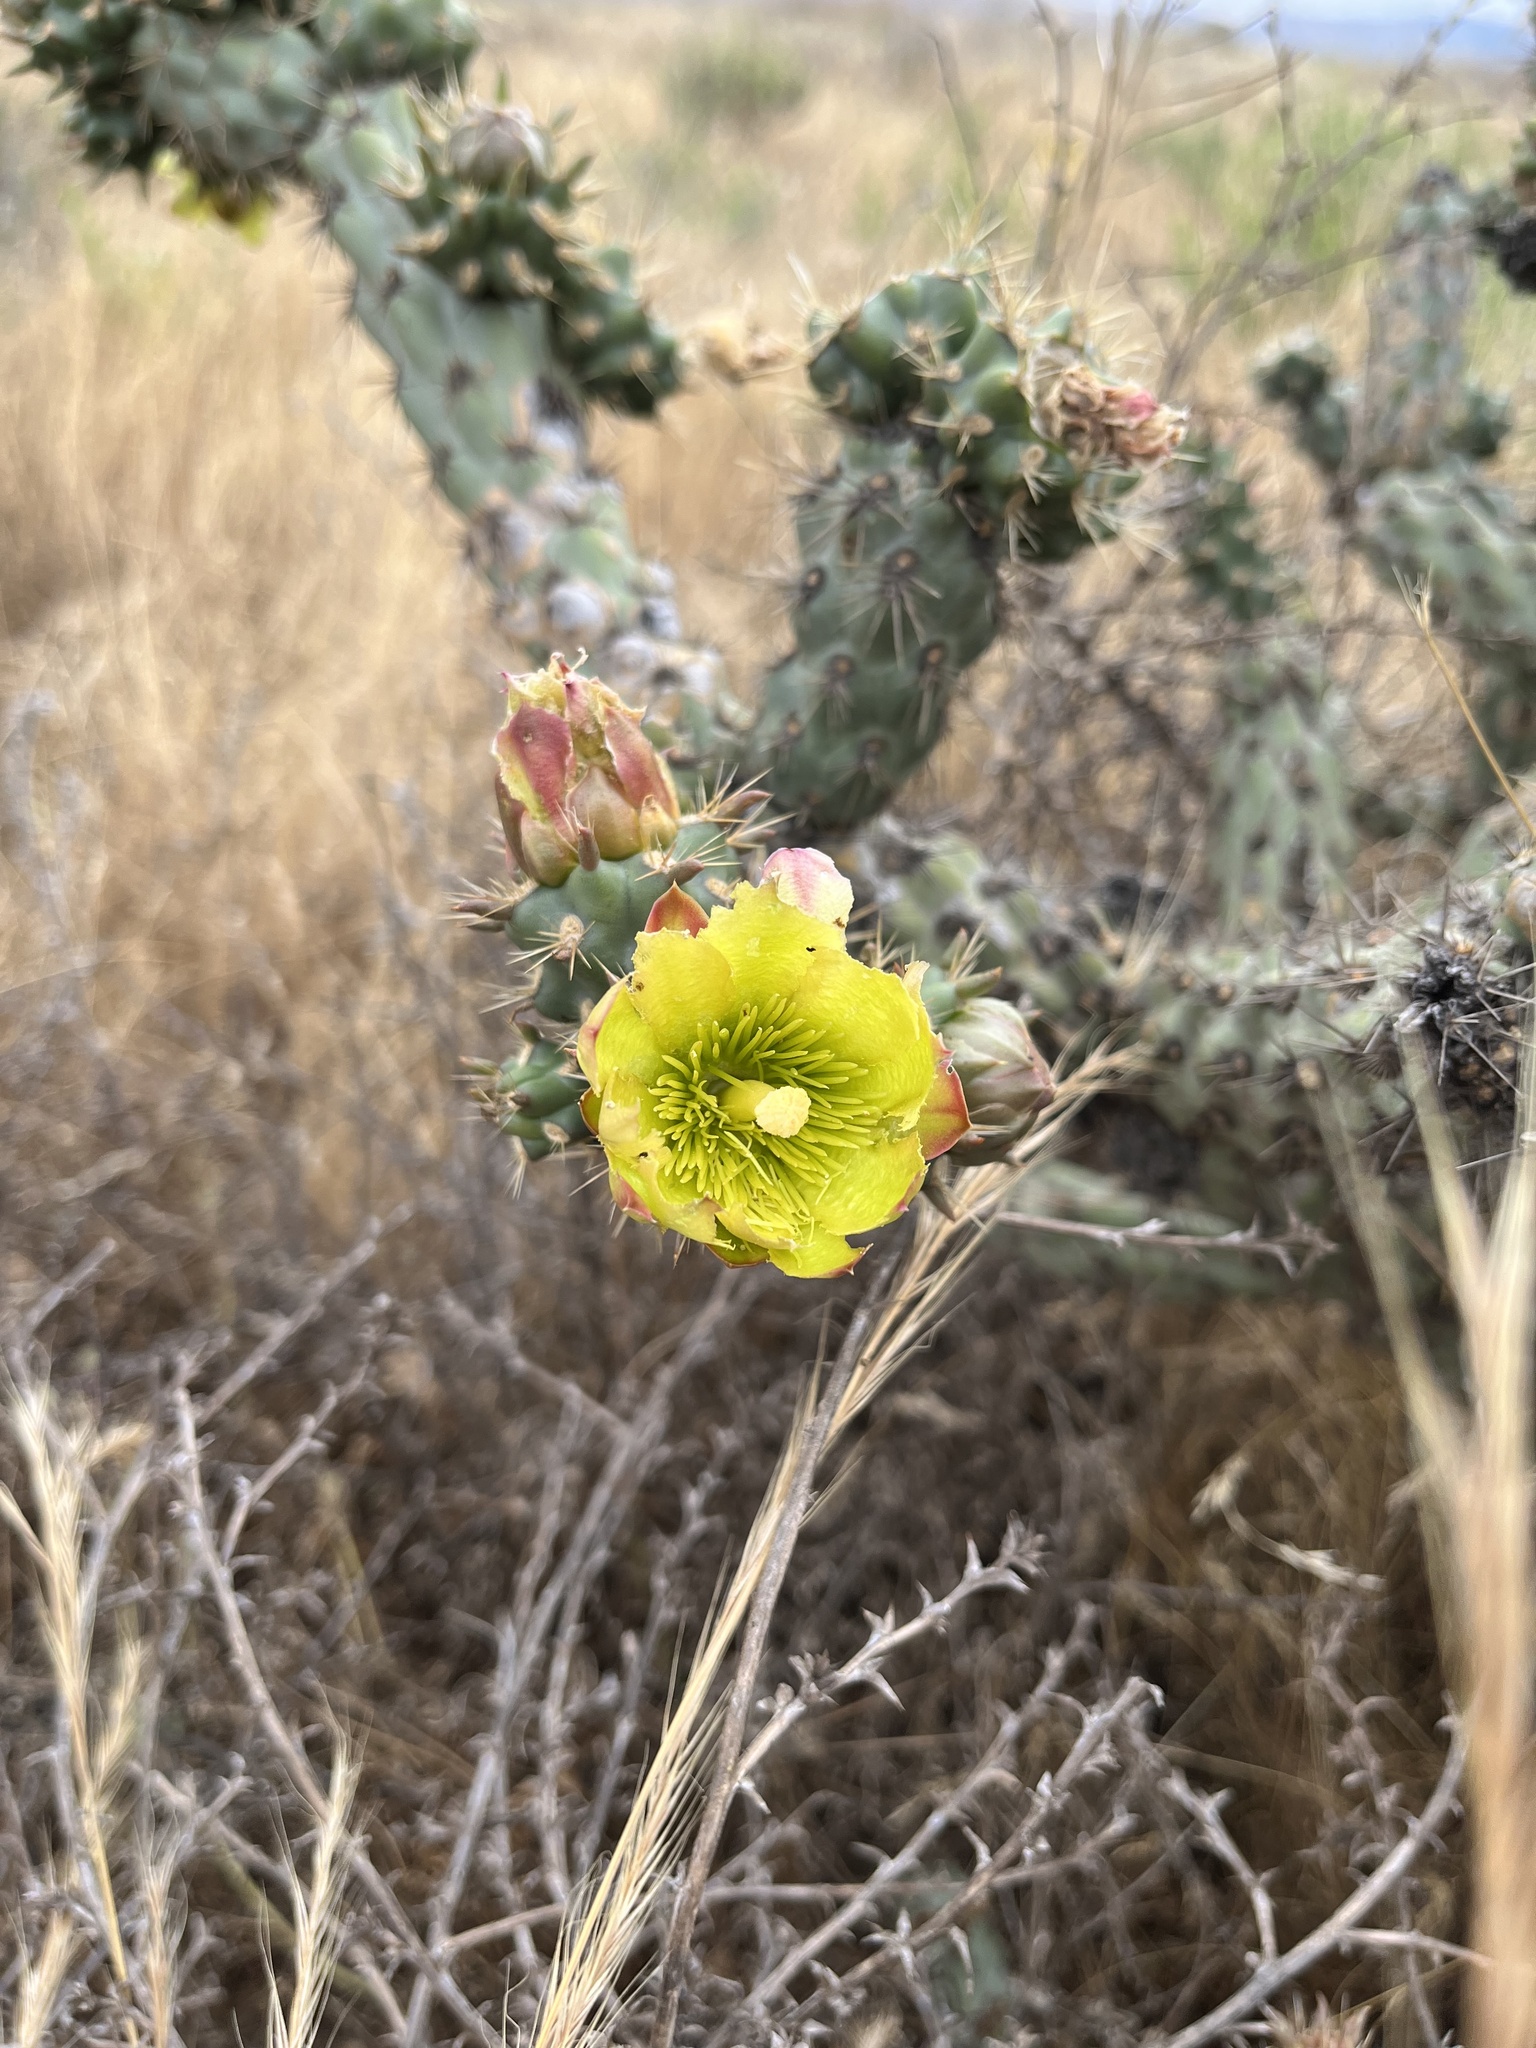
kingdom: Plantae
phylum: Tracheophyta
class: Magnoliopsida
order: Caryophyllales
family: Cactaceae
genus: Cylindropuntia
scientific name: Cylindropuntia bernardina
